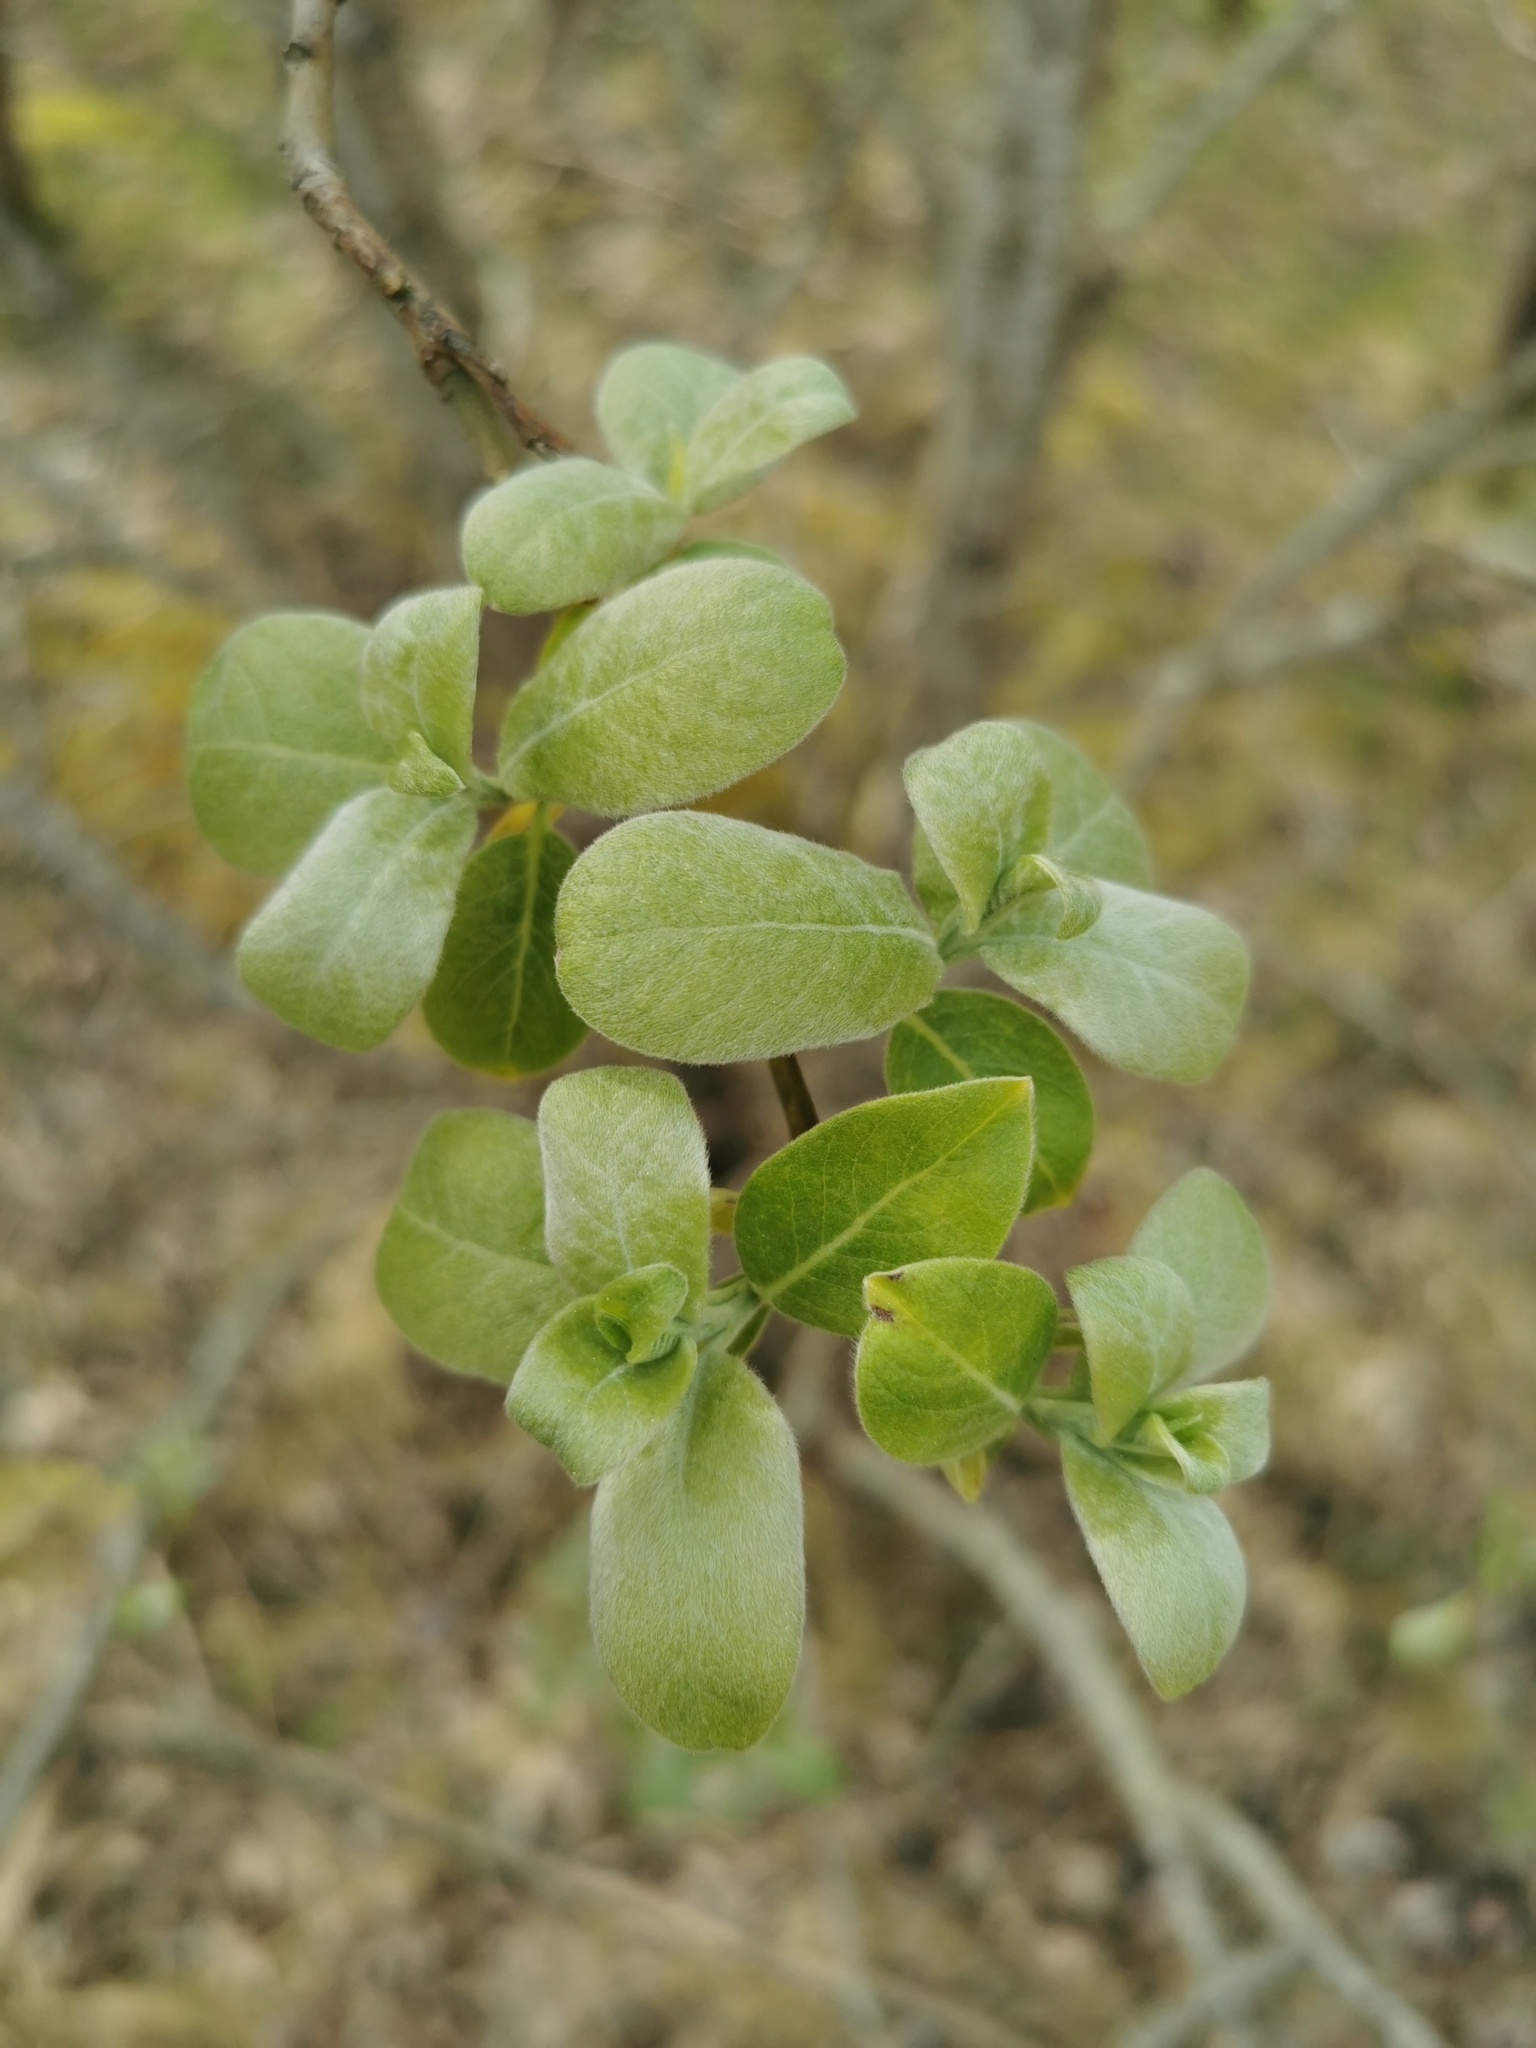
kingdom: Plantae
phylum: Tracheophyta
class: Magnoliopsida
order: Malpighiales
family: Salicaceae
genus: Salix
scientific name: Salix caprea
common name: Goat willow
